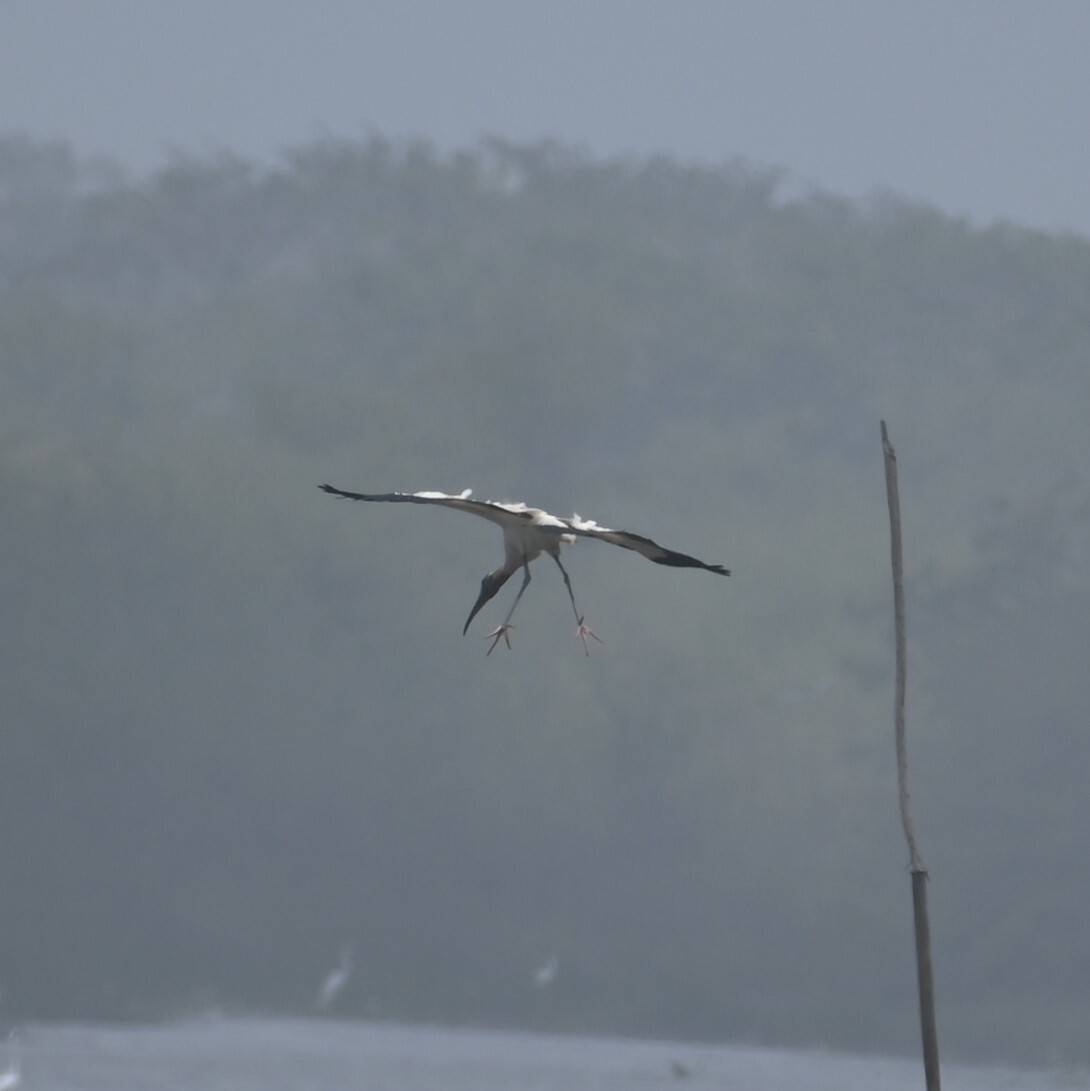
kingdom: Animalia
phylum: Chordata
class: Aves
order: Ciconiiformes
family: Ciconiidae
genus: Mycteria
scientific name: Mycteria americana
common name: Wood stork
